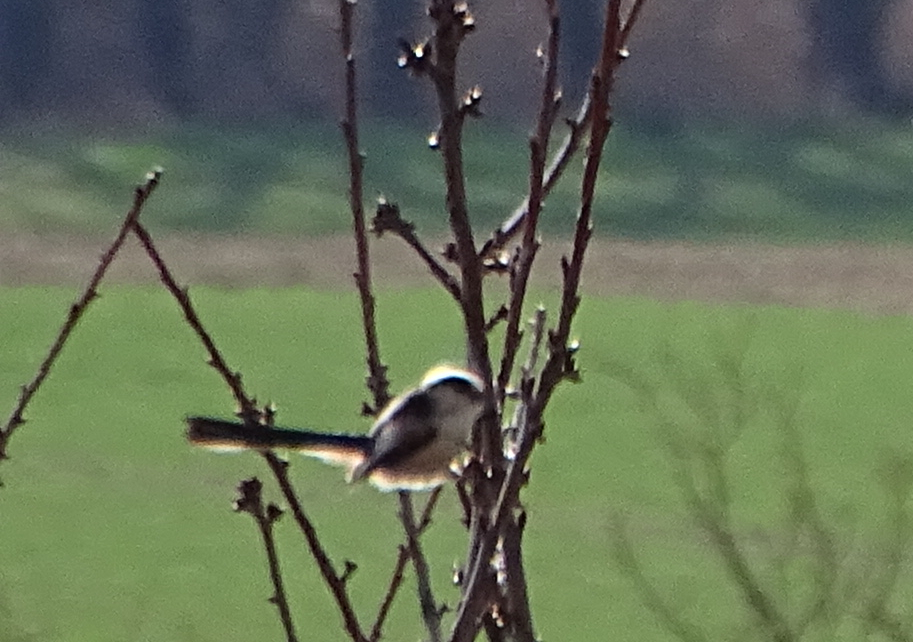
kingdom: Animalia
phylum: Chordata
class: Aves
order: Passeriformes
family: Aegithalidae
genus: Aegithalos
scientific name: Aegithalos caudatus
